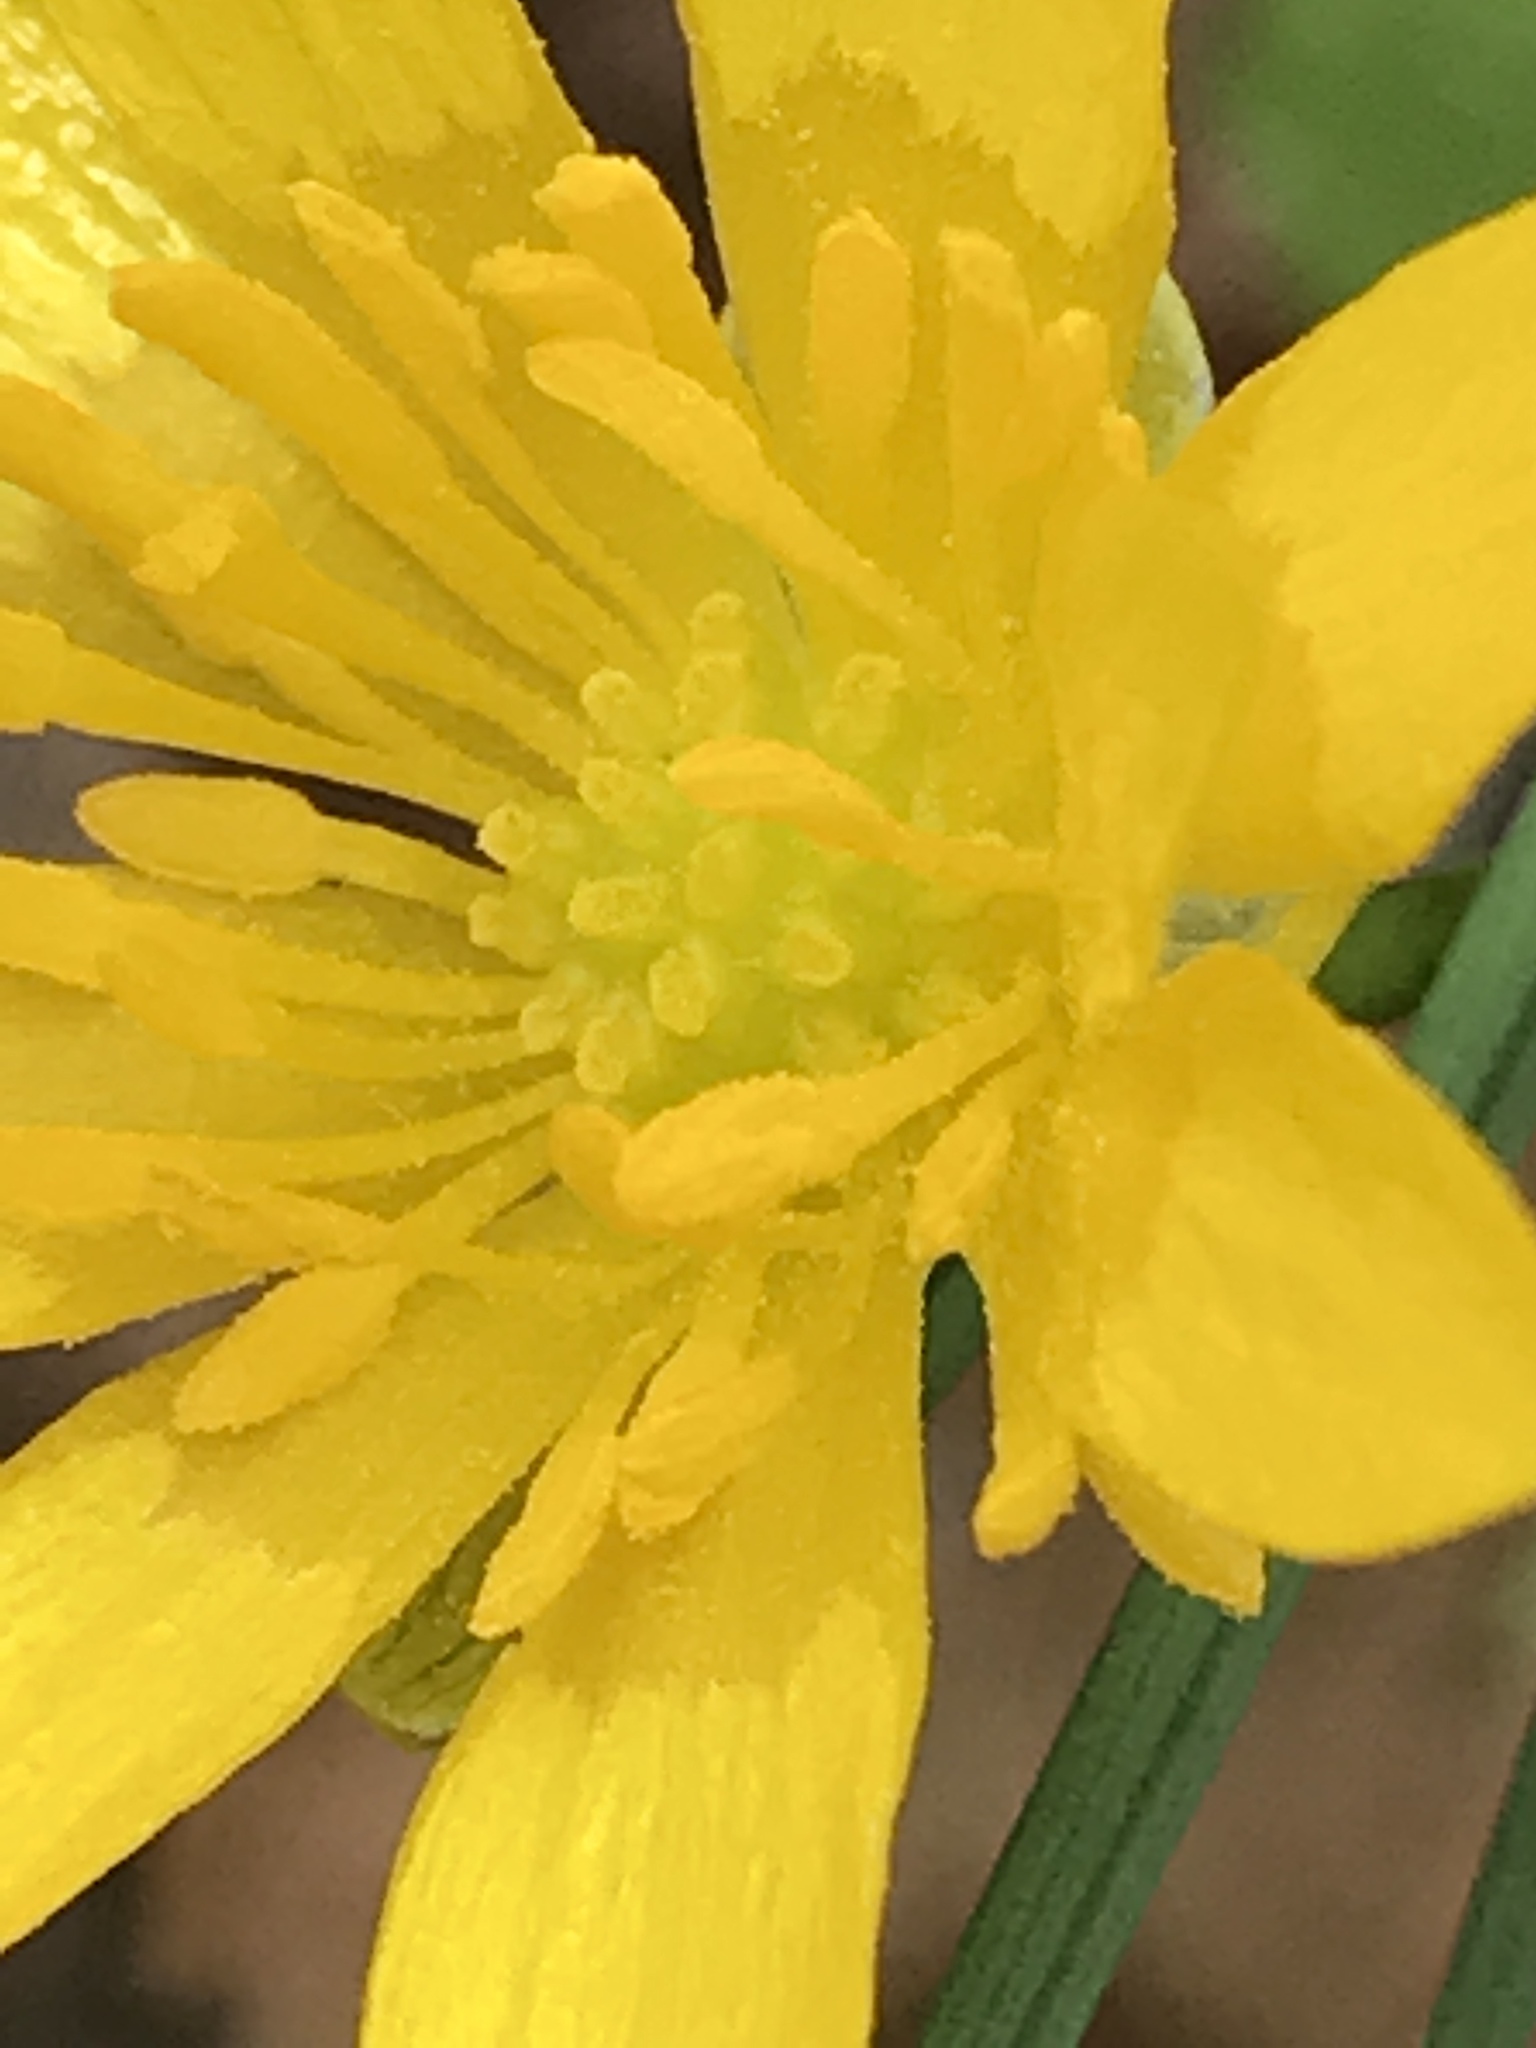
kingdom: Plantae
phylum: Tracheophyta
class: Magnoliopsida
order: Ranunculales
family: Ranunculaceae
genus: Ficaria
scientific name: Ficaria verna
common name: Lesser celandine
